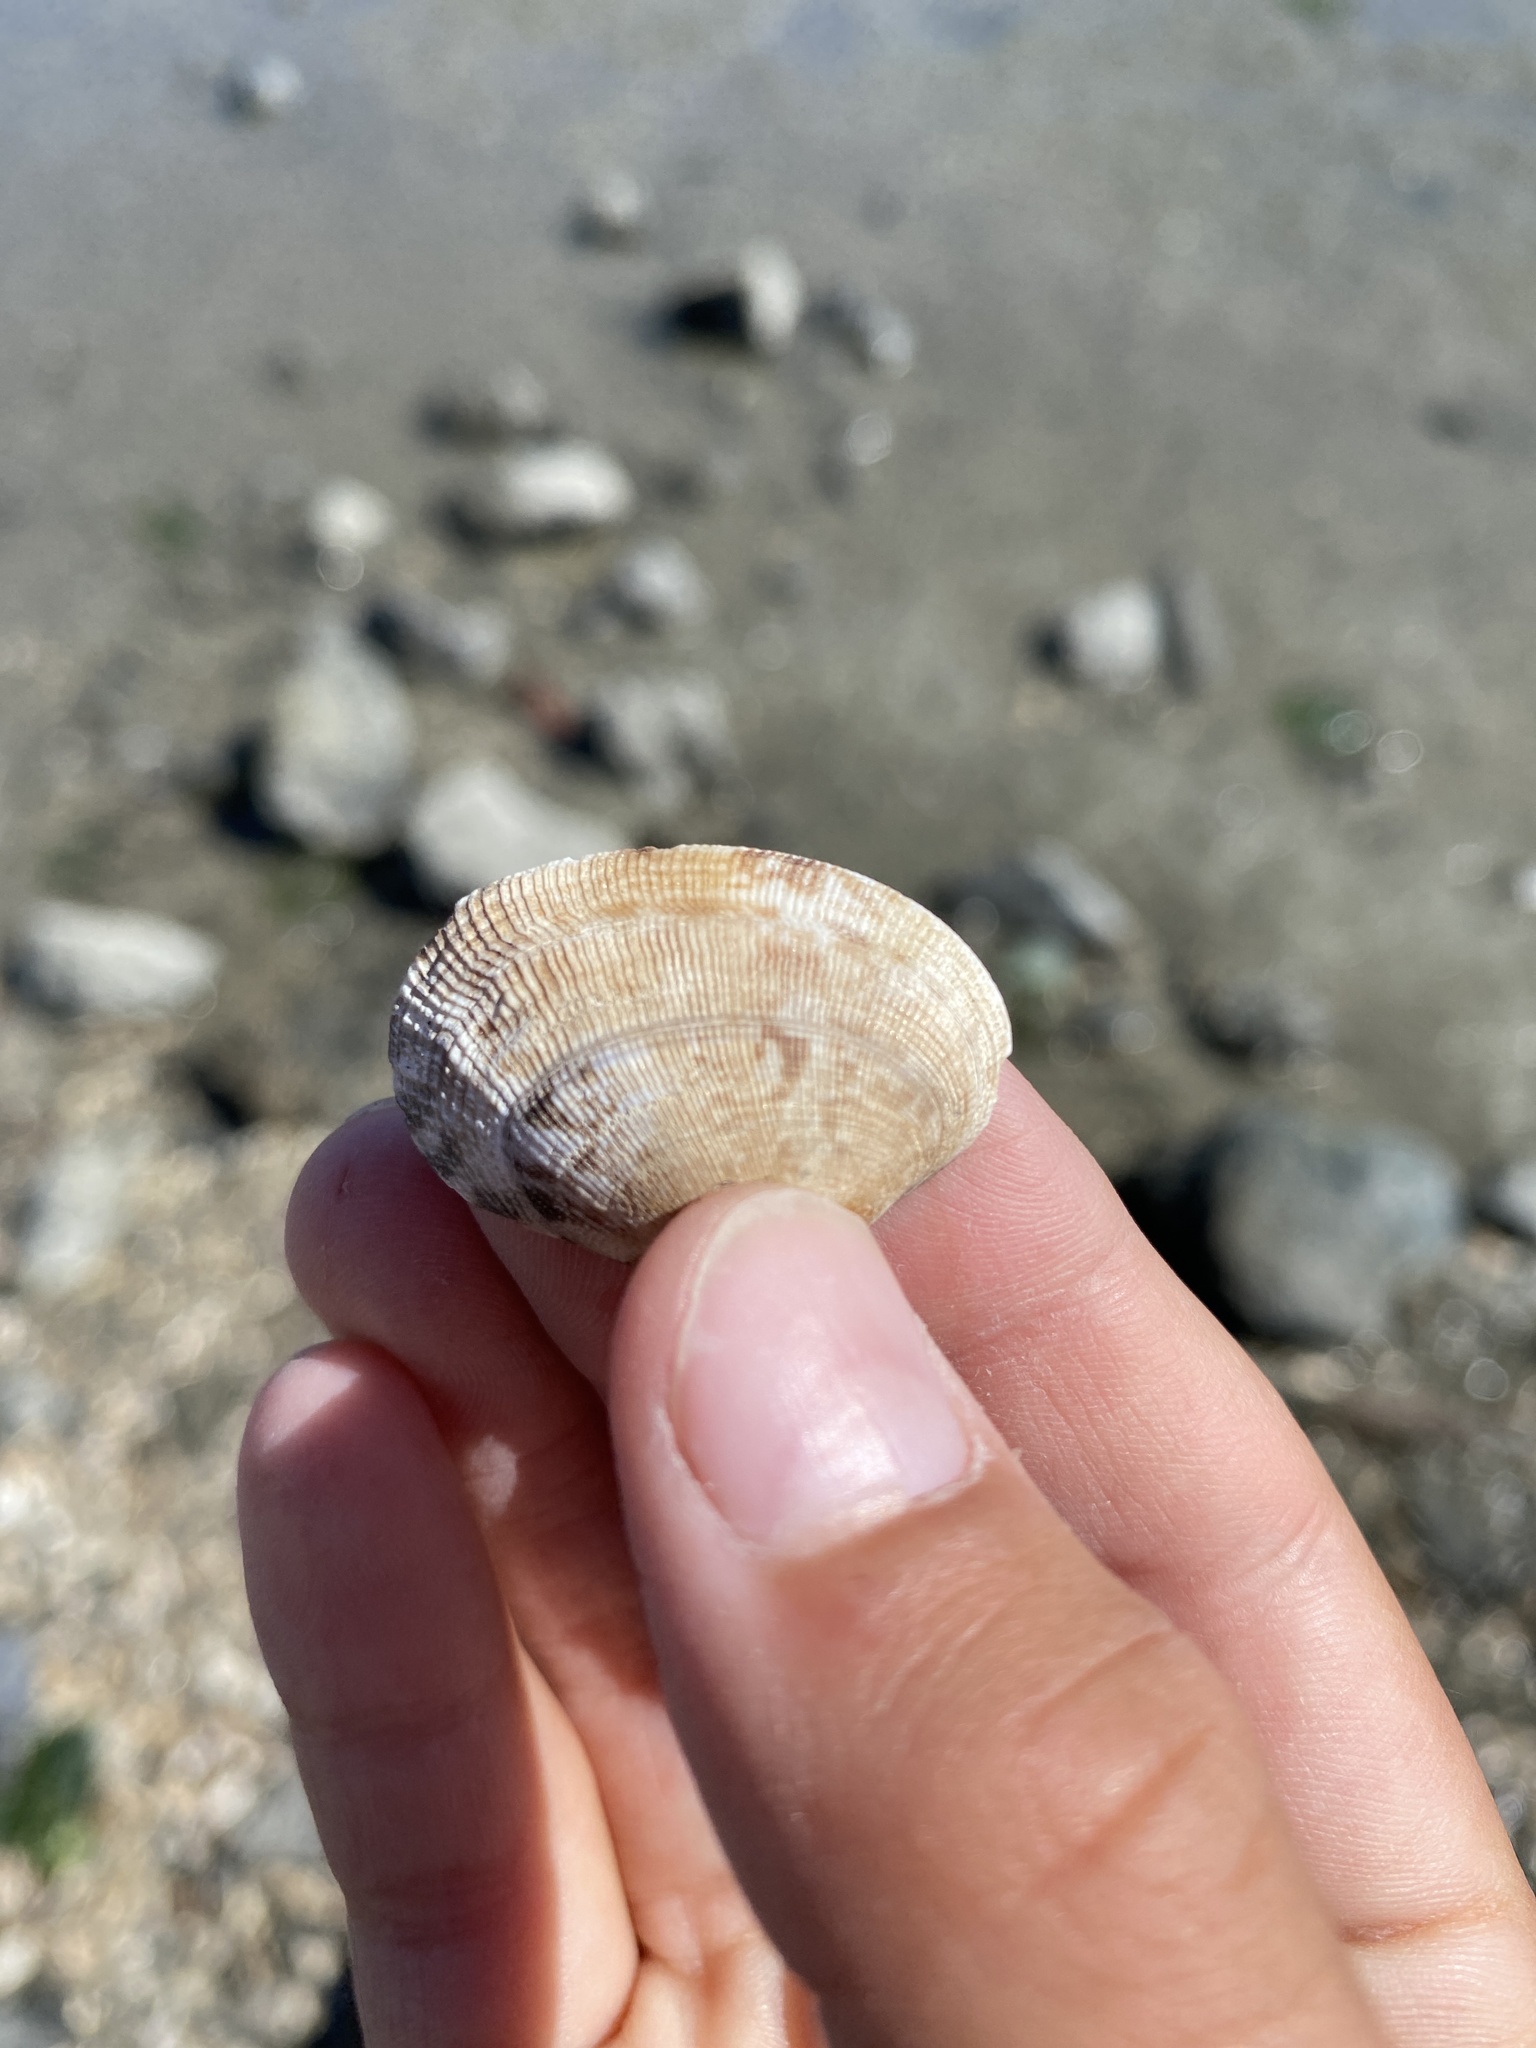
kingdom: Animalia
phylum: Mollusca
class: Bivalvia
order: Venerida
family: Veneridae
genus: Ruditapes
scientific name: Ruditapes philippinarum
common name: Manila clam
